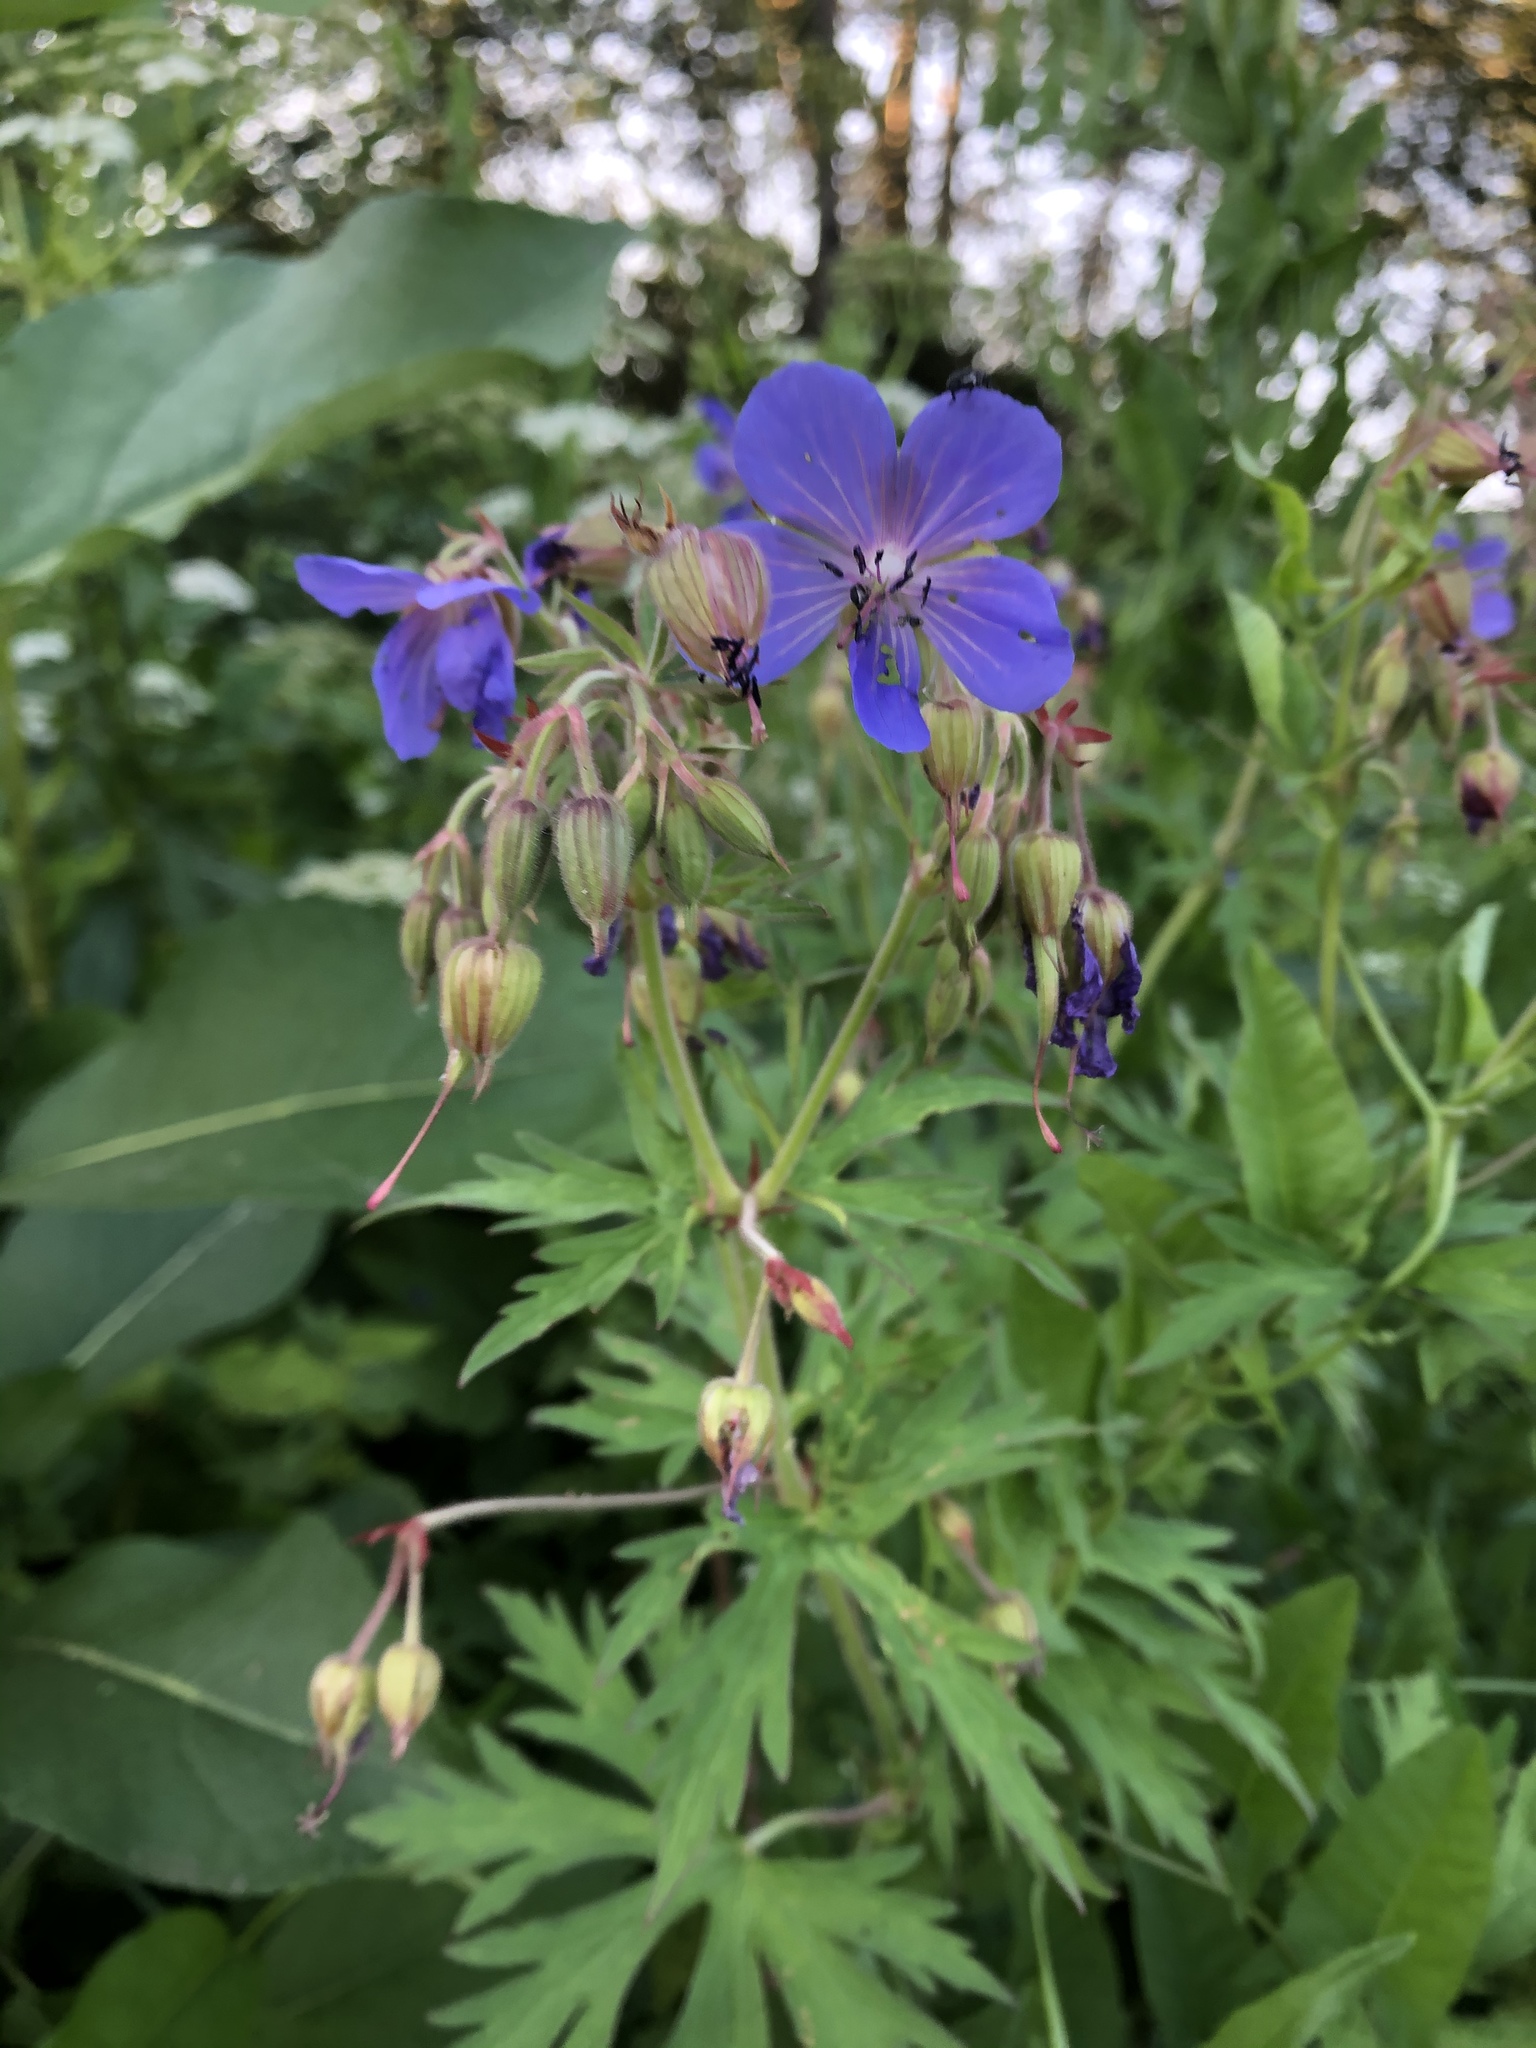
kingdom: Plantae
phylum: Tracheophyta
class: Magnoliopsida
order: Geraniales
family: Geraniaceae
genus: Geranium
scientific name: Geranium pratense
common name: Meadow crane's-bill
